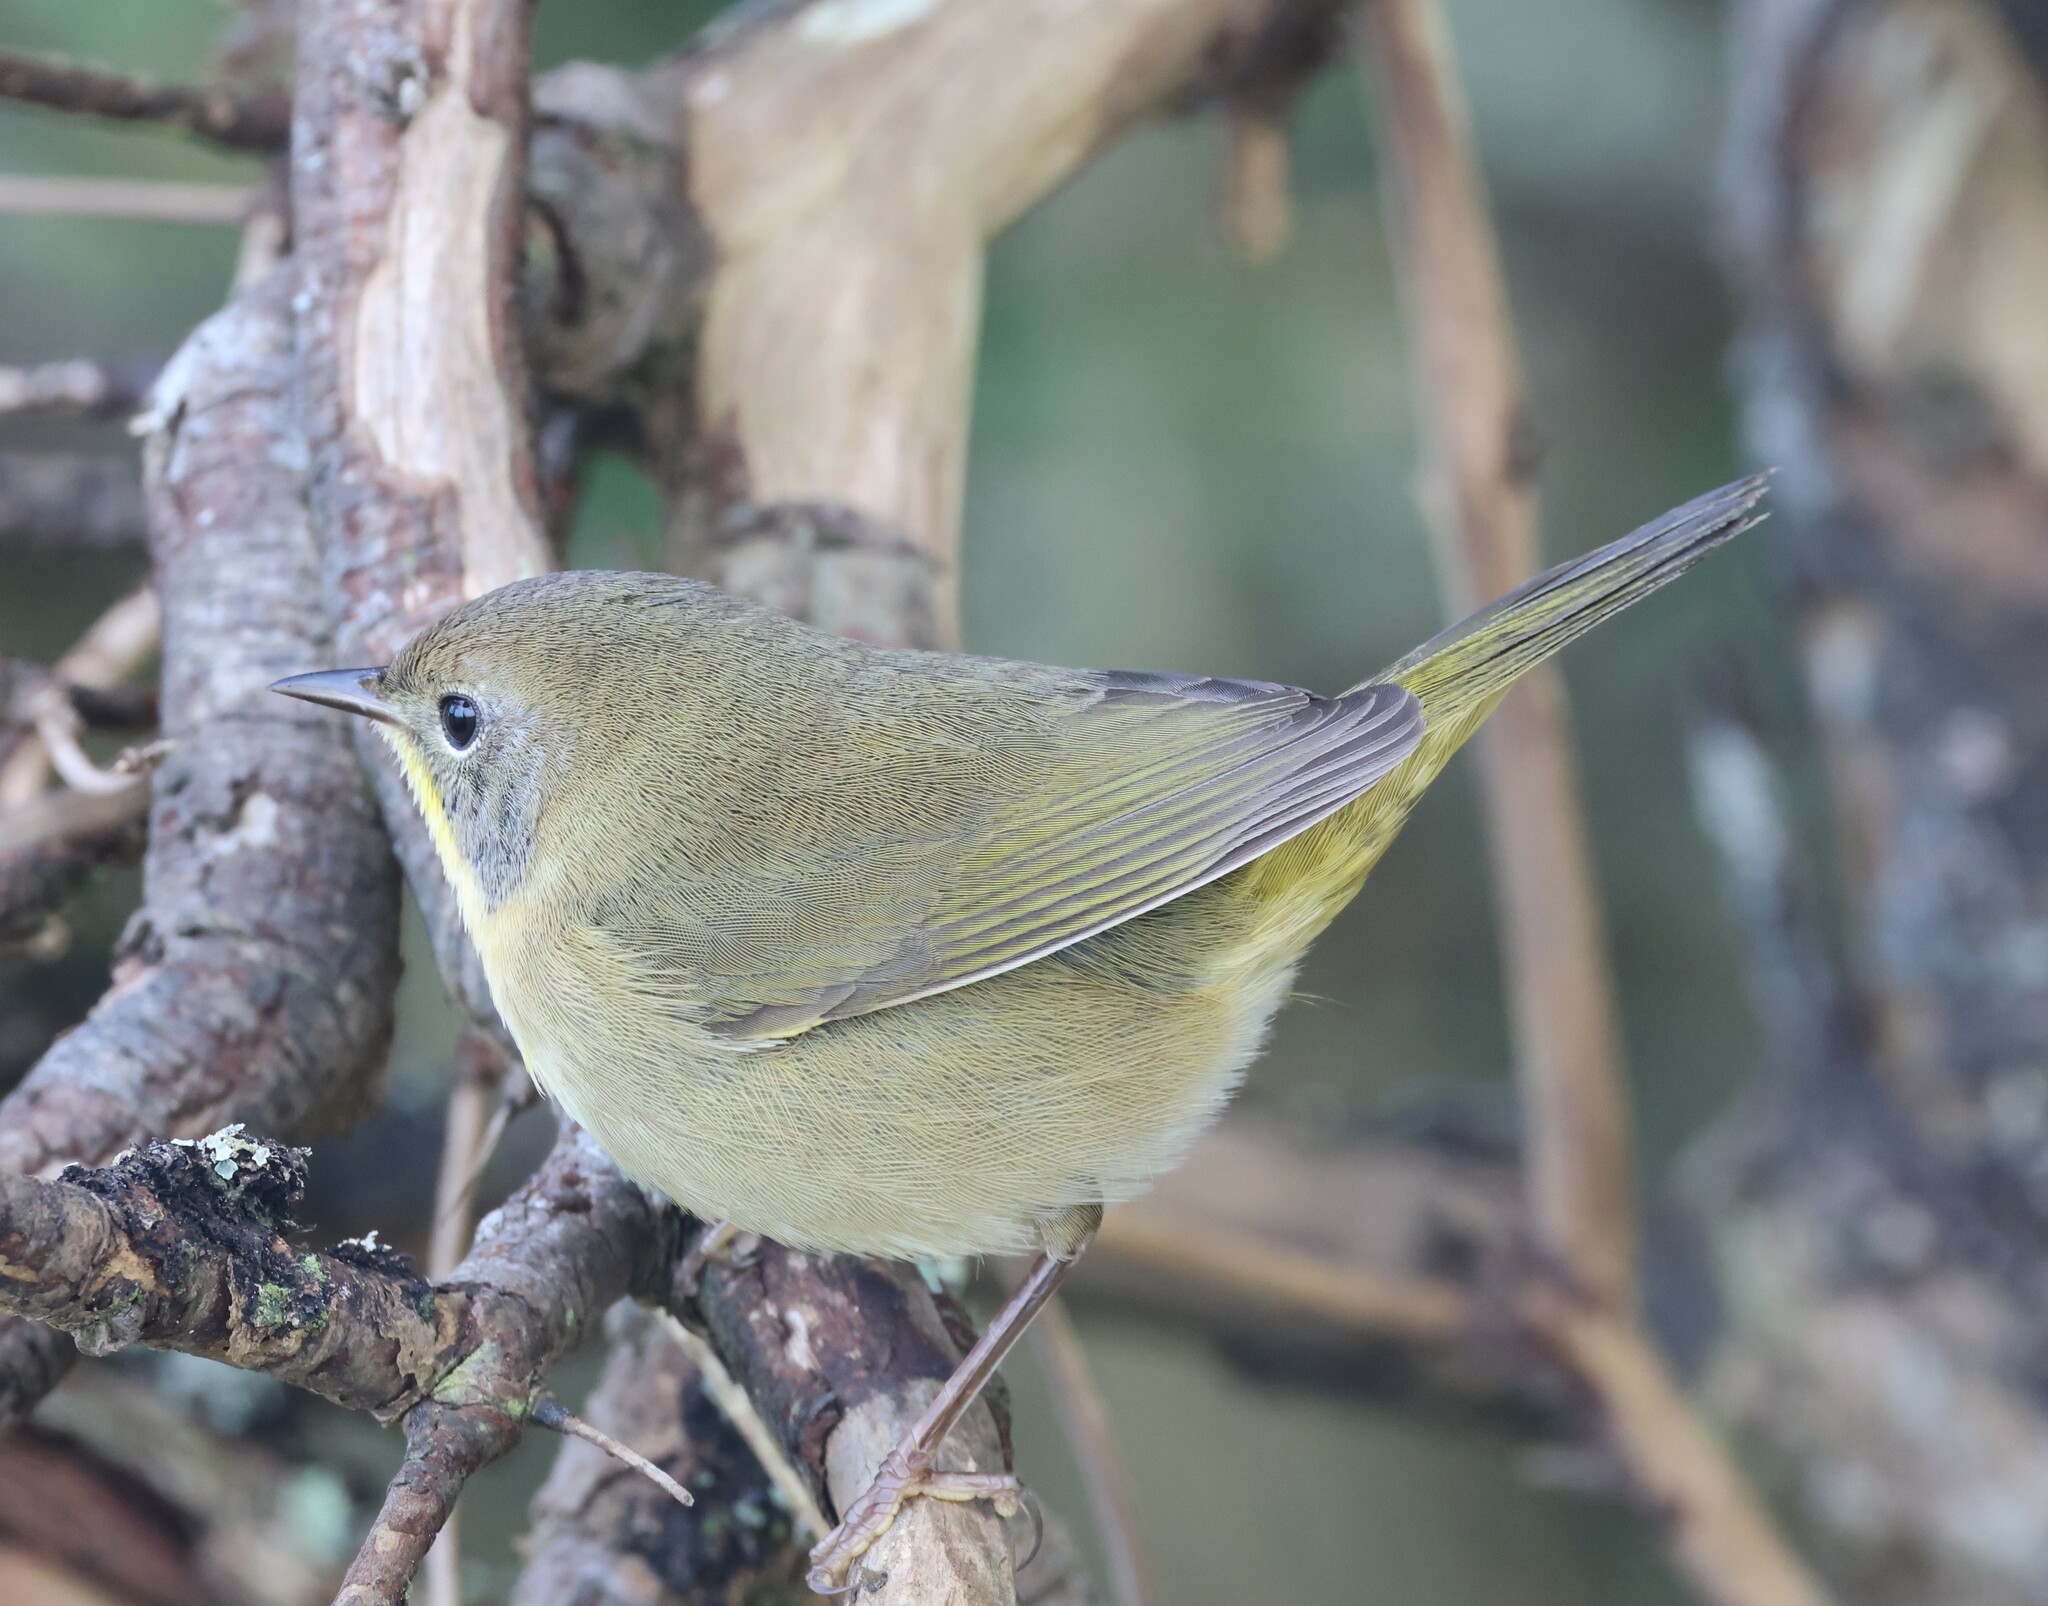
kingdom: Animalia
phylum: Chordata
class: Aves
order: Passeriformes
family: Parulidae
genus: Geothlypis
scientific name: Geothlypis trichas
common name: Common yellowthroat
